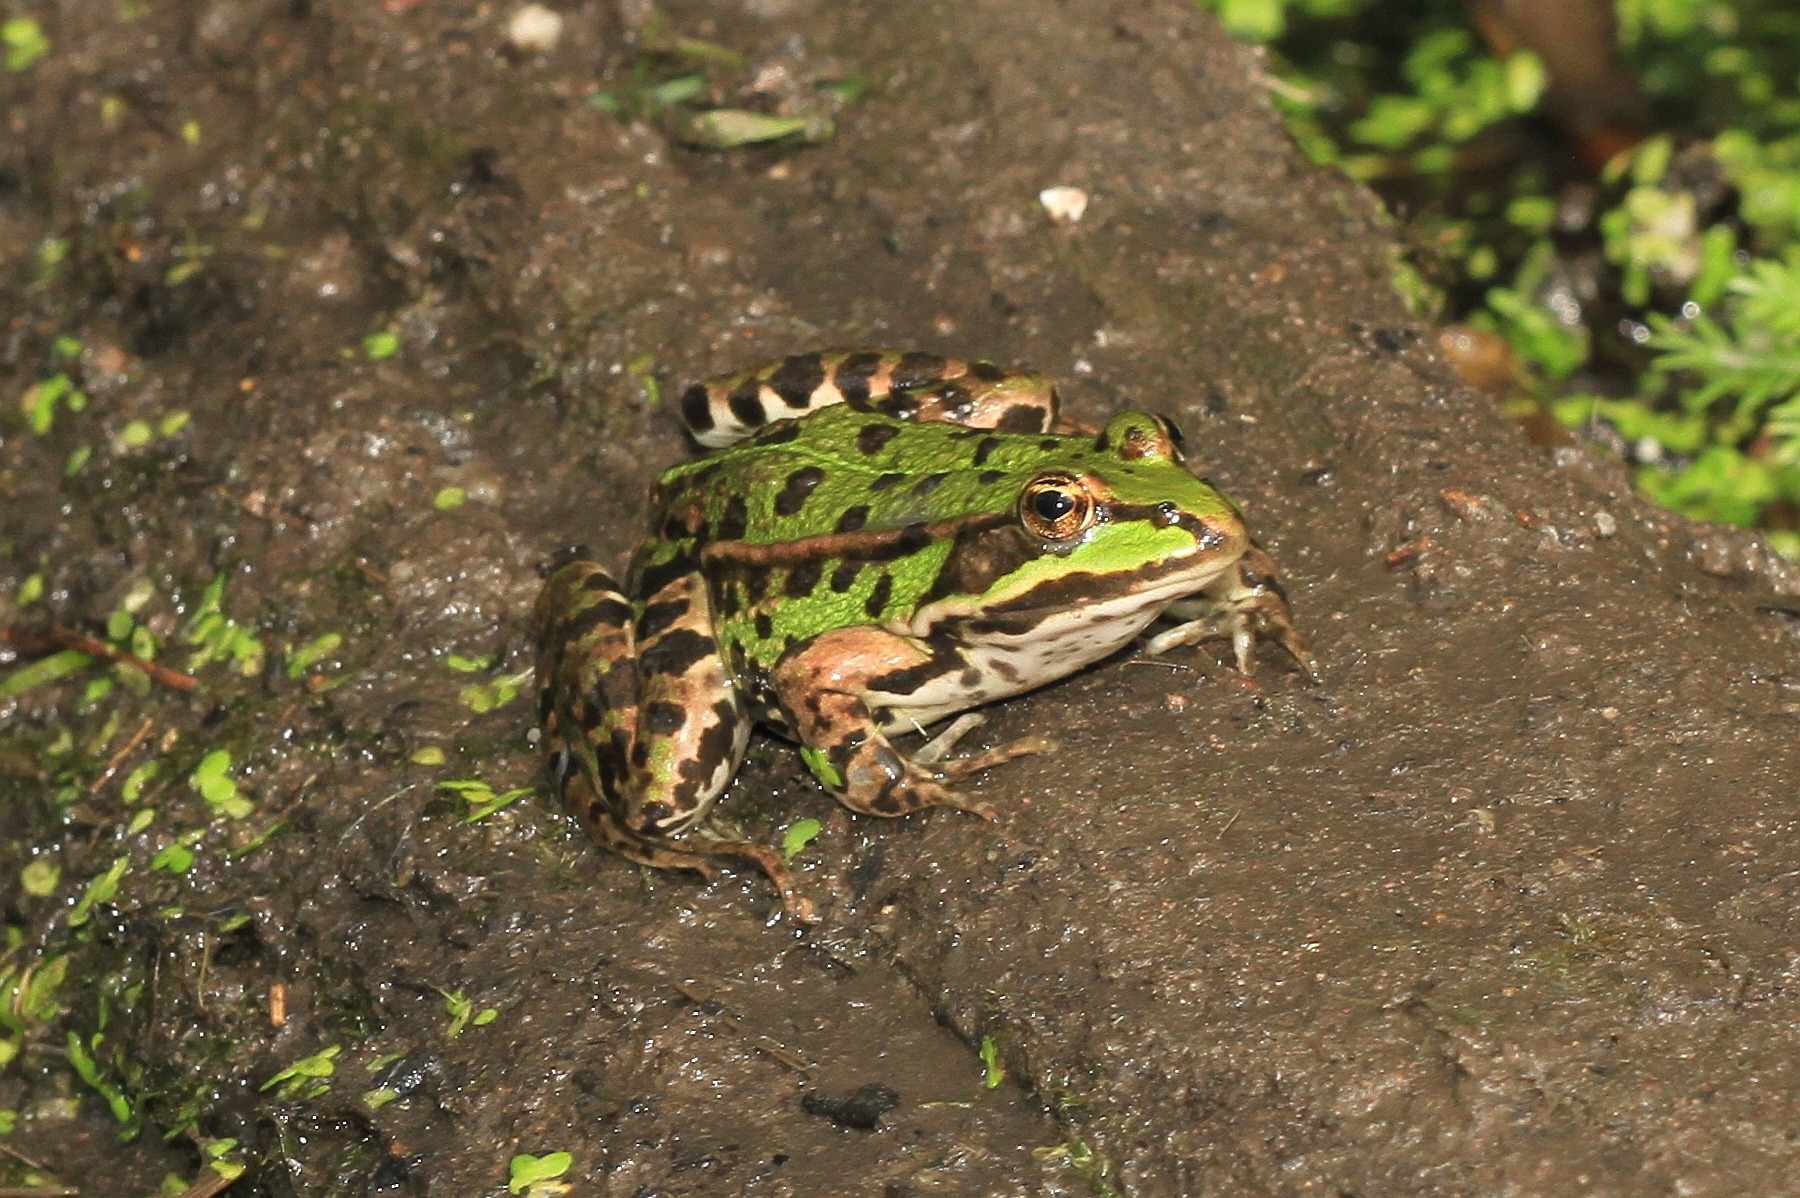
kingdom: Animalia
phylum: Chordata
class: Amphibia
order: Anura
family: Ranidae
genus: Pelophylax
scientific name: Pelophylax
